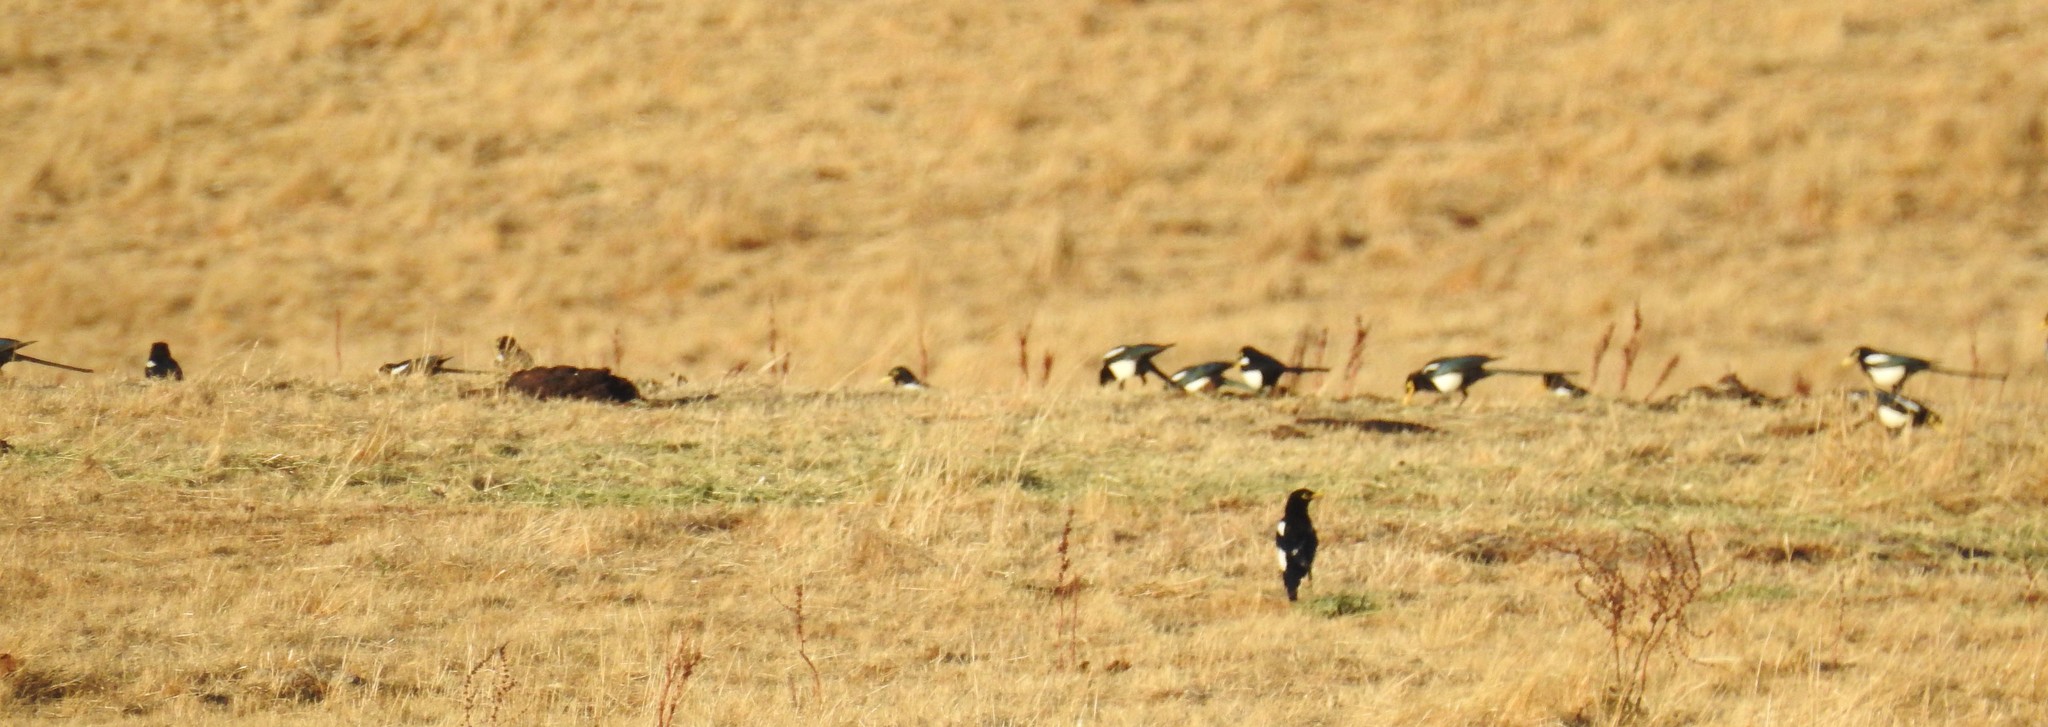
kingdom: Animalia
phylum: Chordata
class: Aves
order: Passeriformes
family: Corvidae
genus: Pica
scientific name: Pica nuttalli
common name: Yellow-billed magpie
